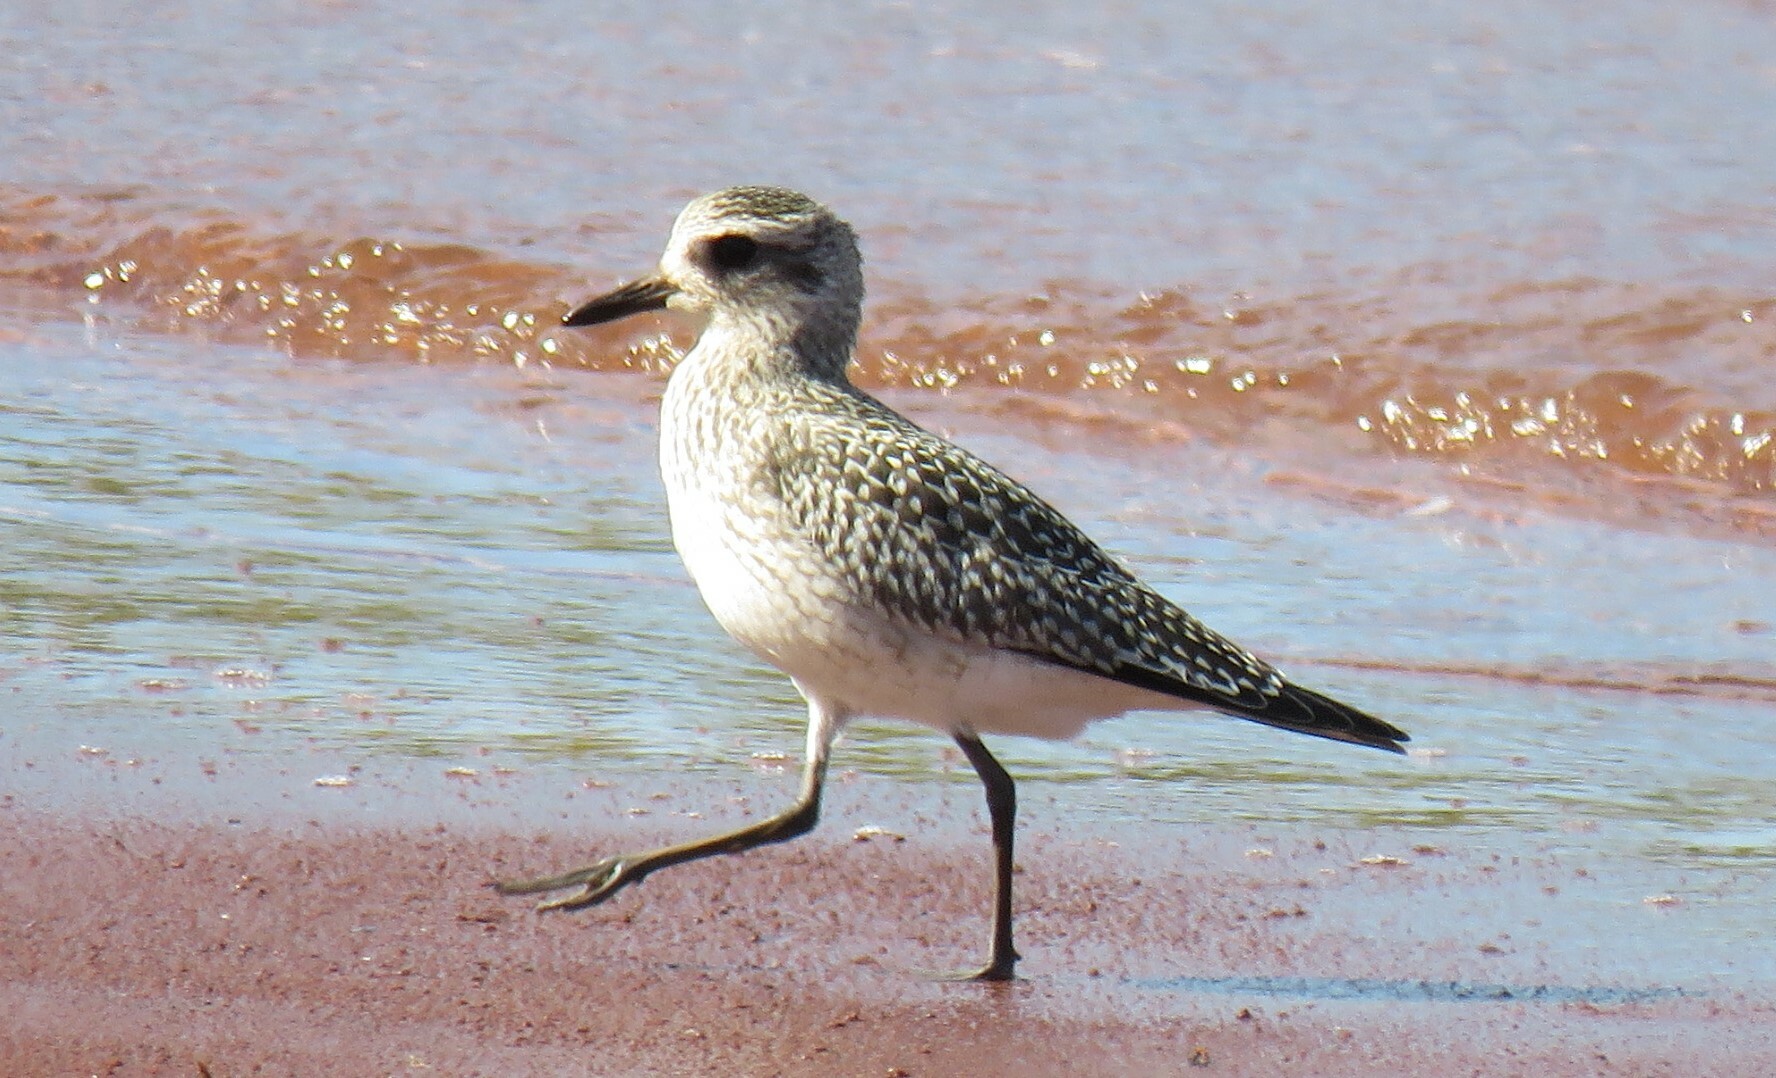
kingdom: Animalia
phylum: Chordata
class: Aves
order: Charadriiformes
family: Charadriidae
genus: Pluvialis
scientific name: Pluvialis squatarola
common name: Grey plover
